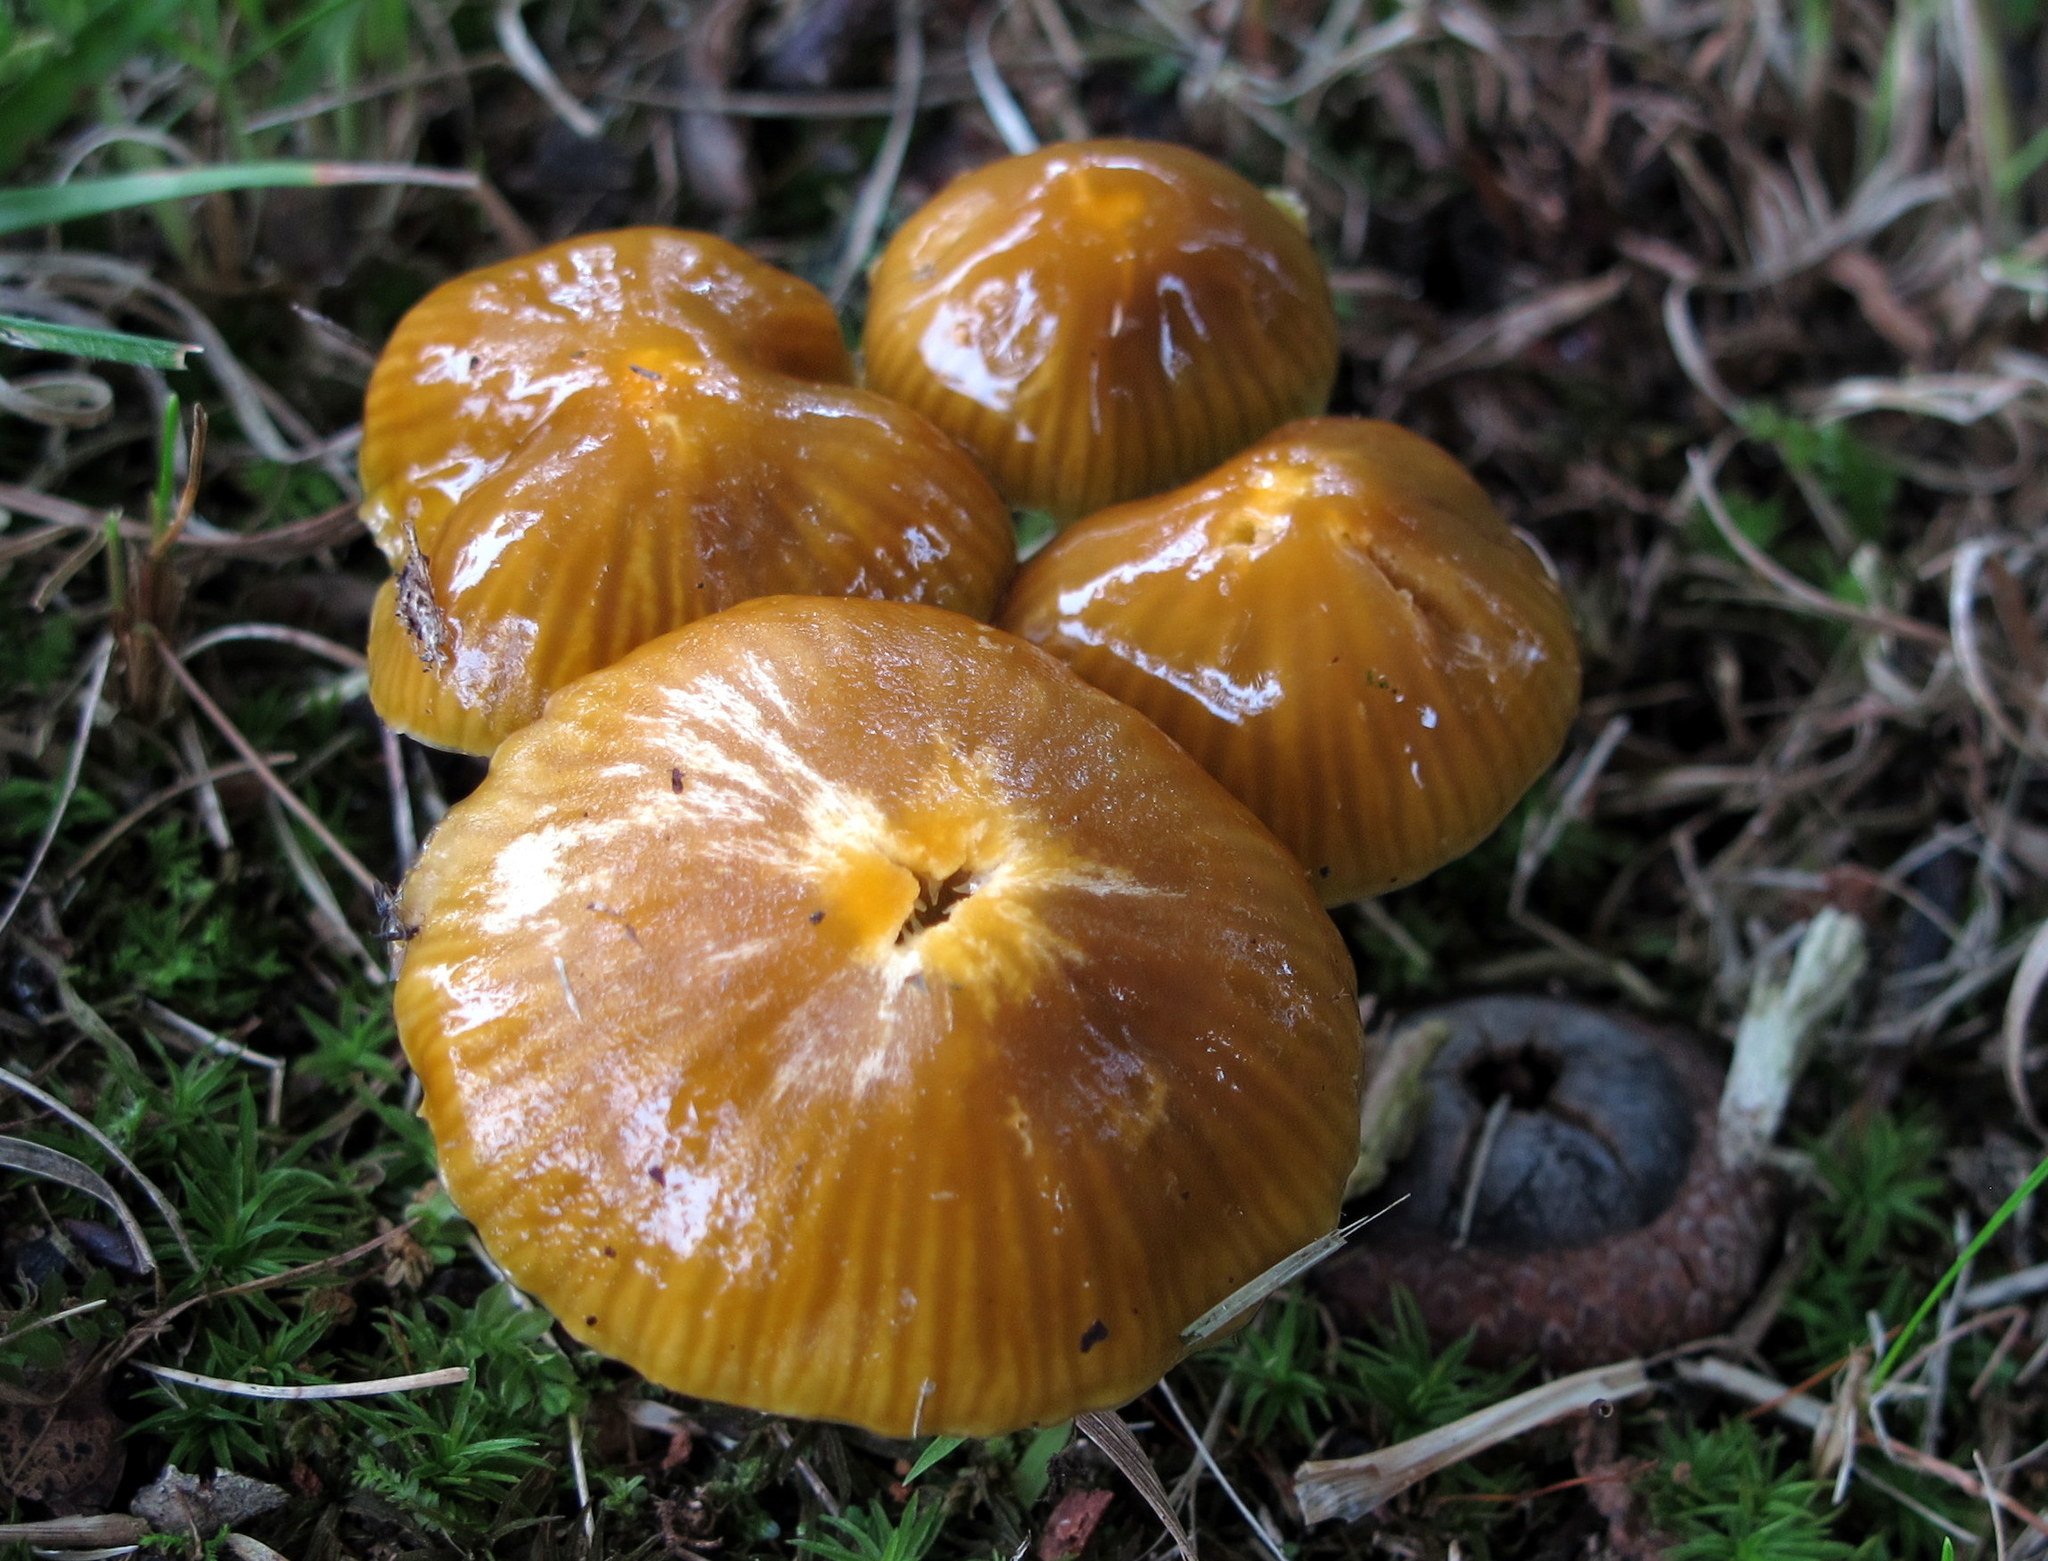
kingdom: Fungi
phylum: Basidiomycota
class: Agaricomycetes
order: Agaricales
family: Hygrophoraceae
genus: Gliophorus
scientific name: Gliophorus psittacinus
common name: Parrot wax-cap
